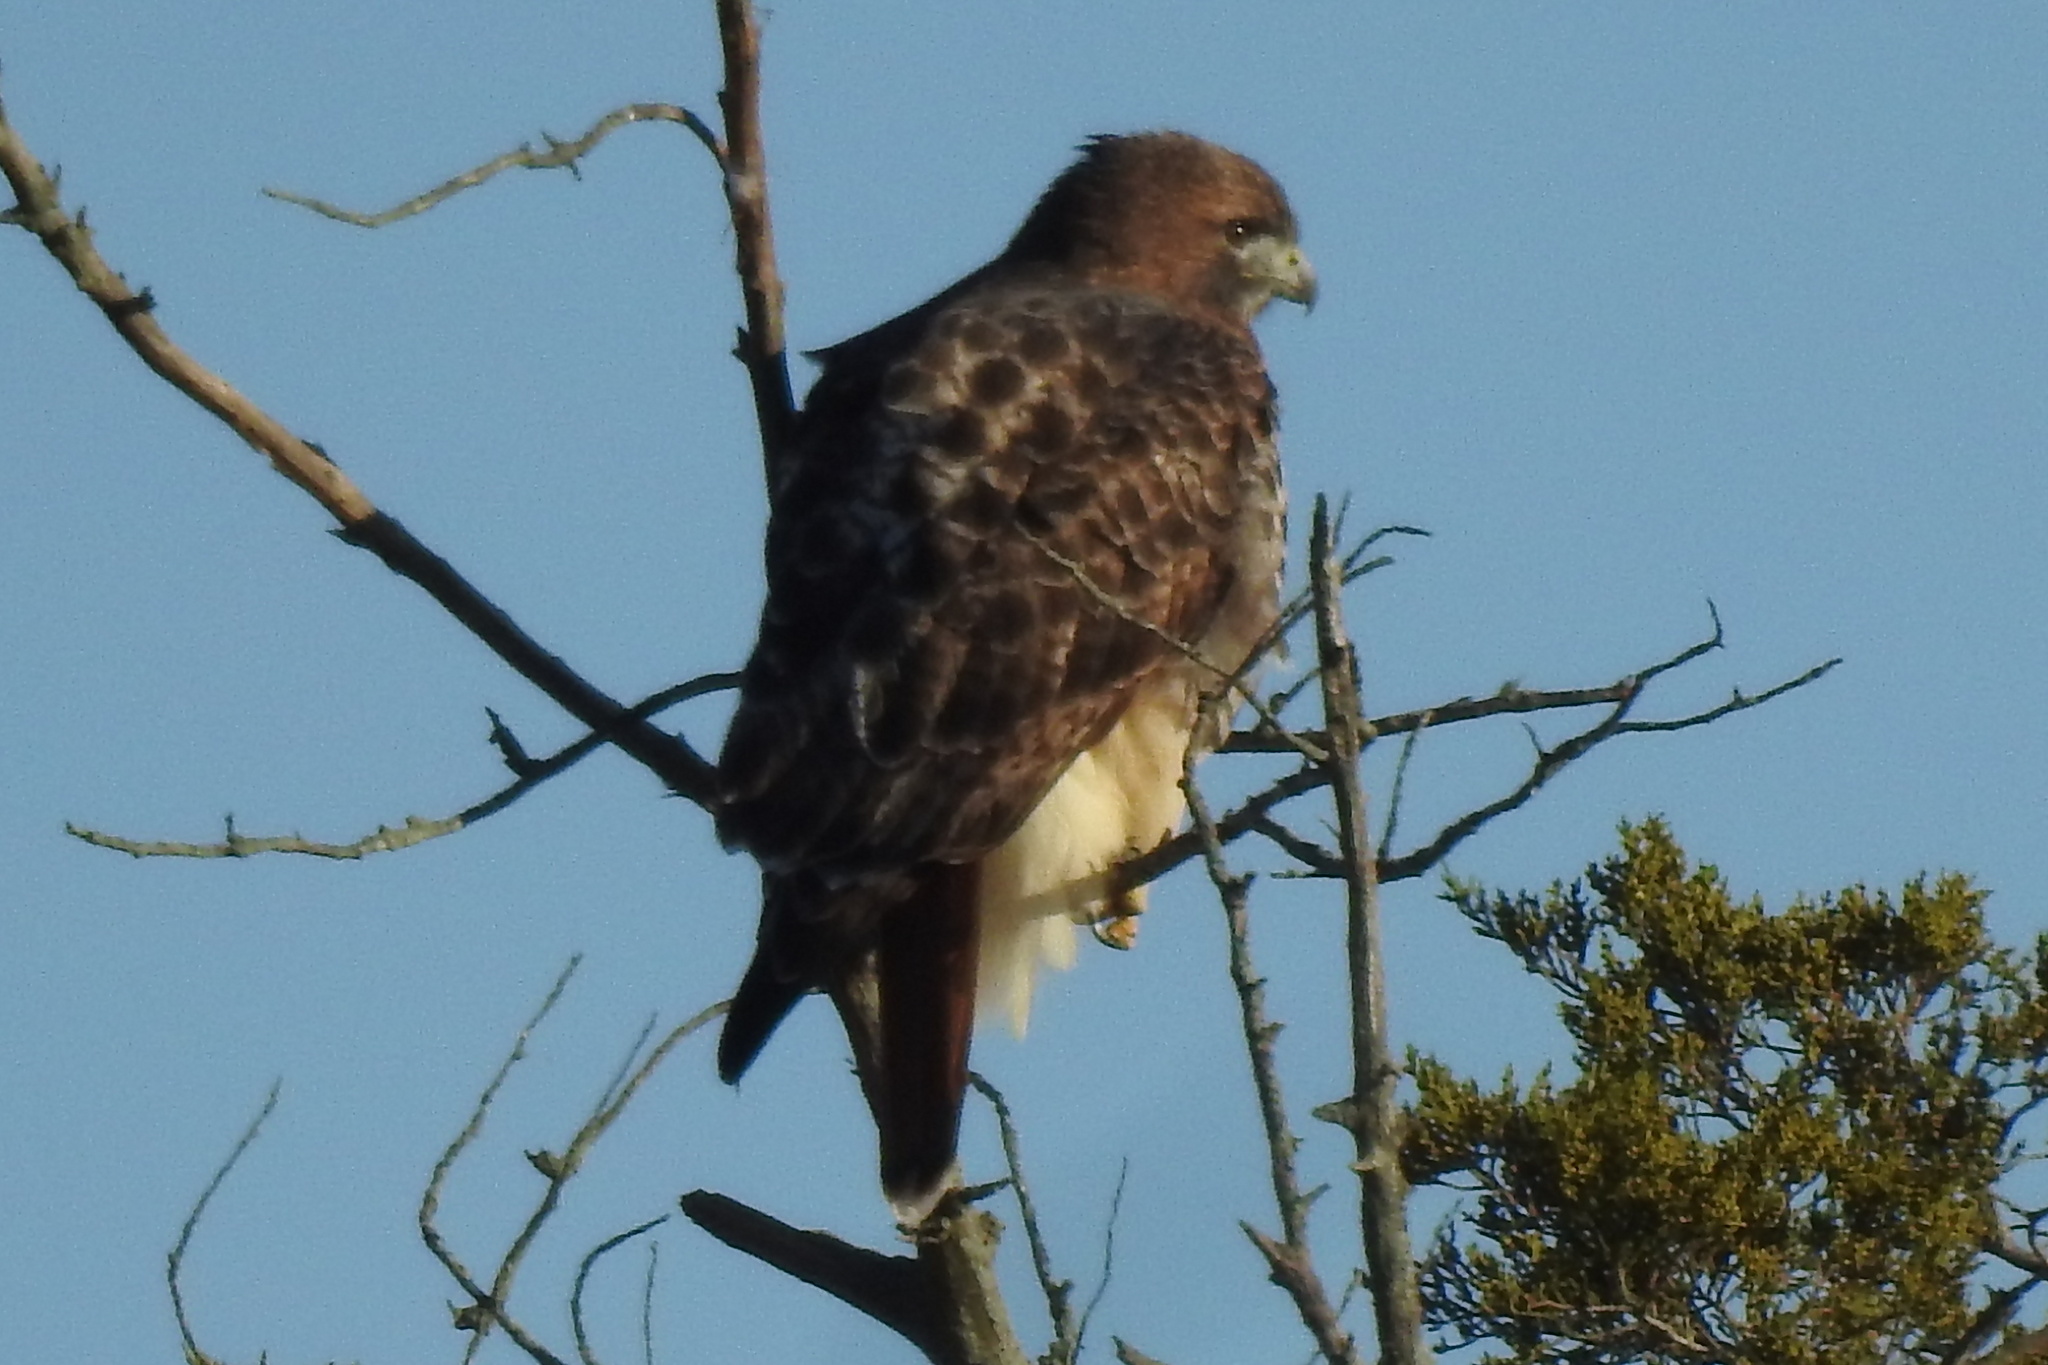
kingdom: Animalia
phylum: Chordata
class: Aves
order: Accipitriformes
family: Accipitridae
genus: Buteo
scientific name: Buteo jamaicensis
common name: Red-tailed hawk
